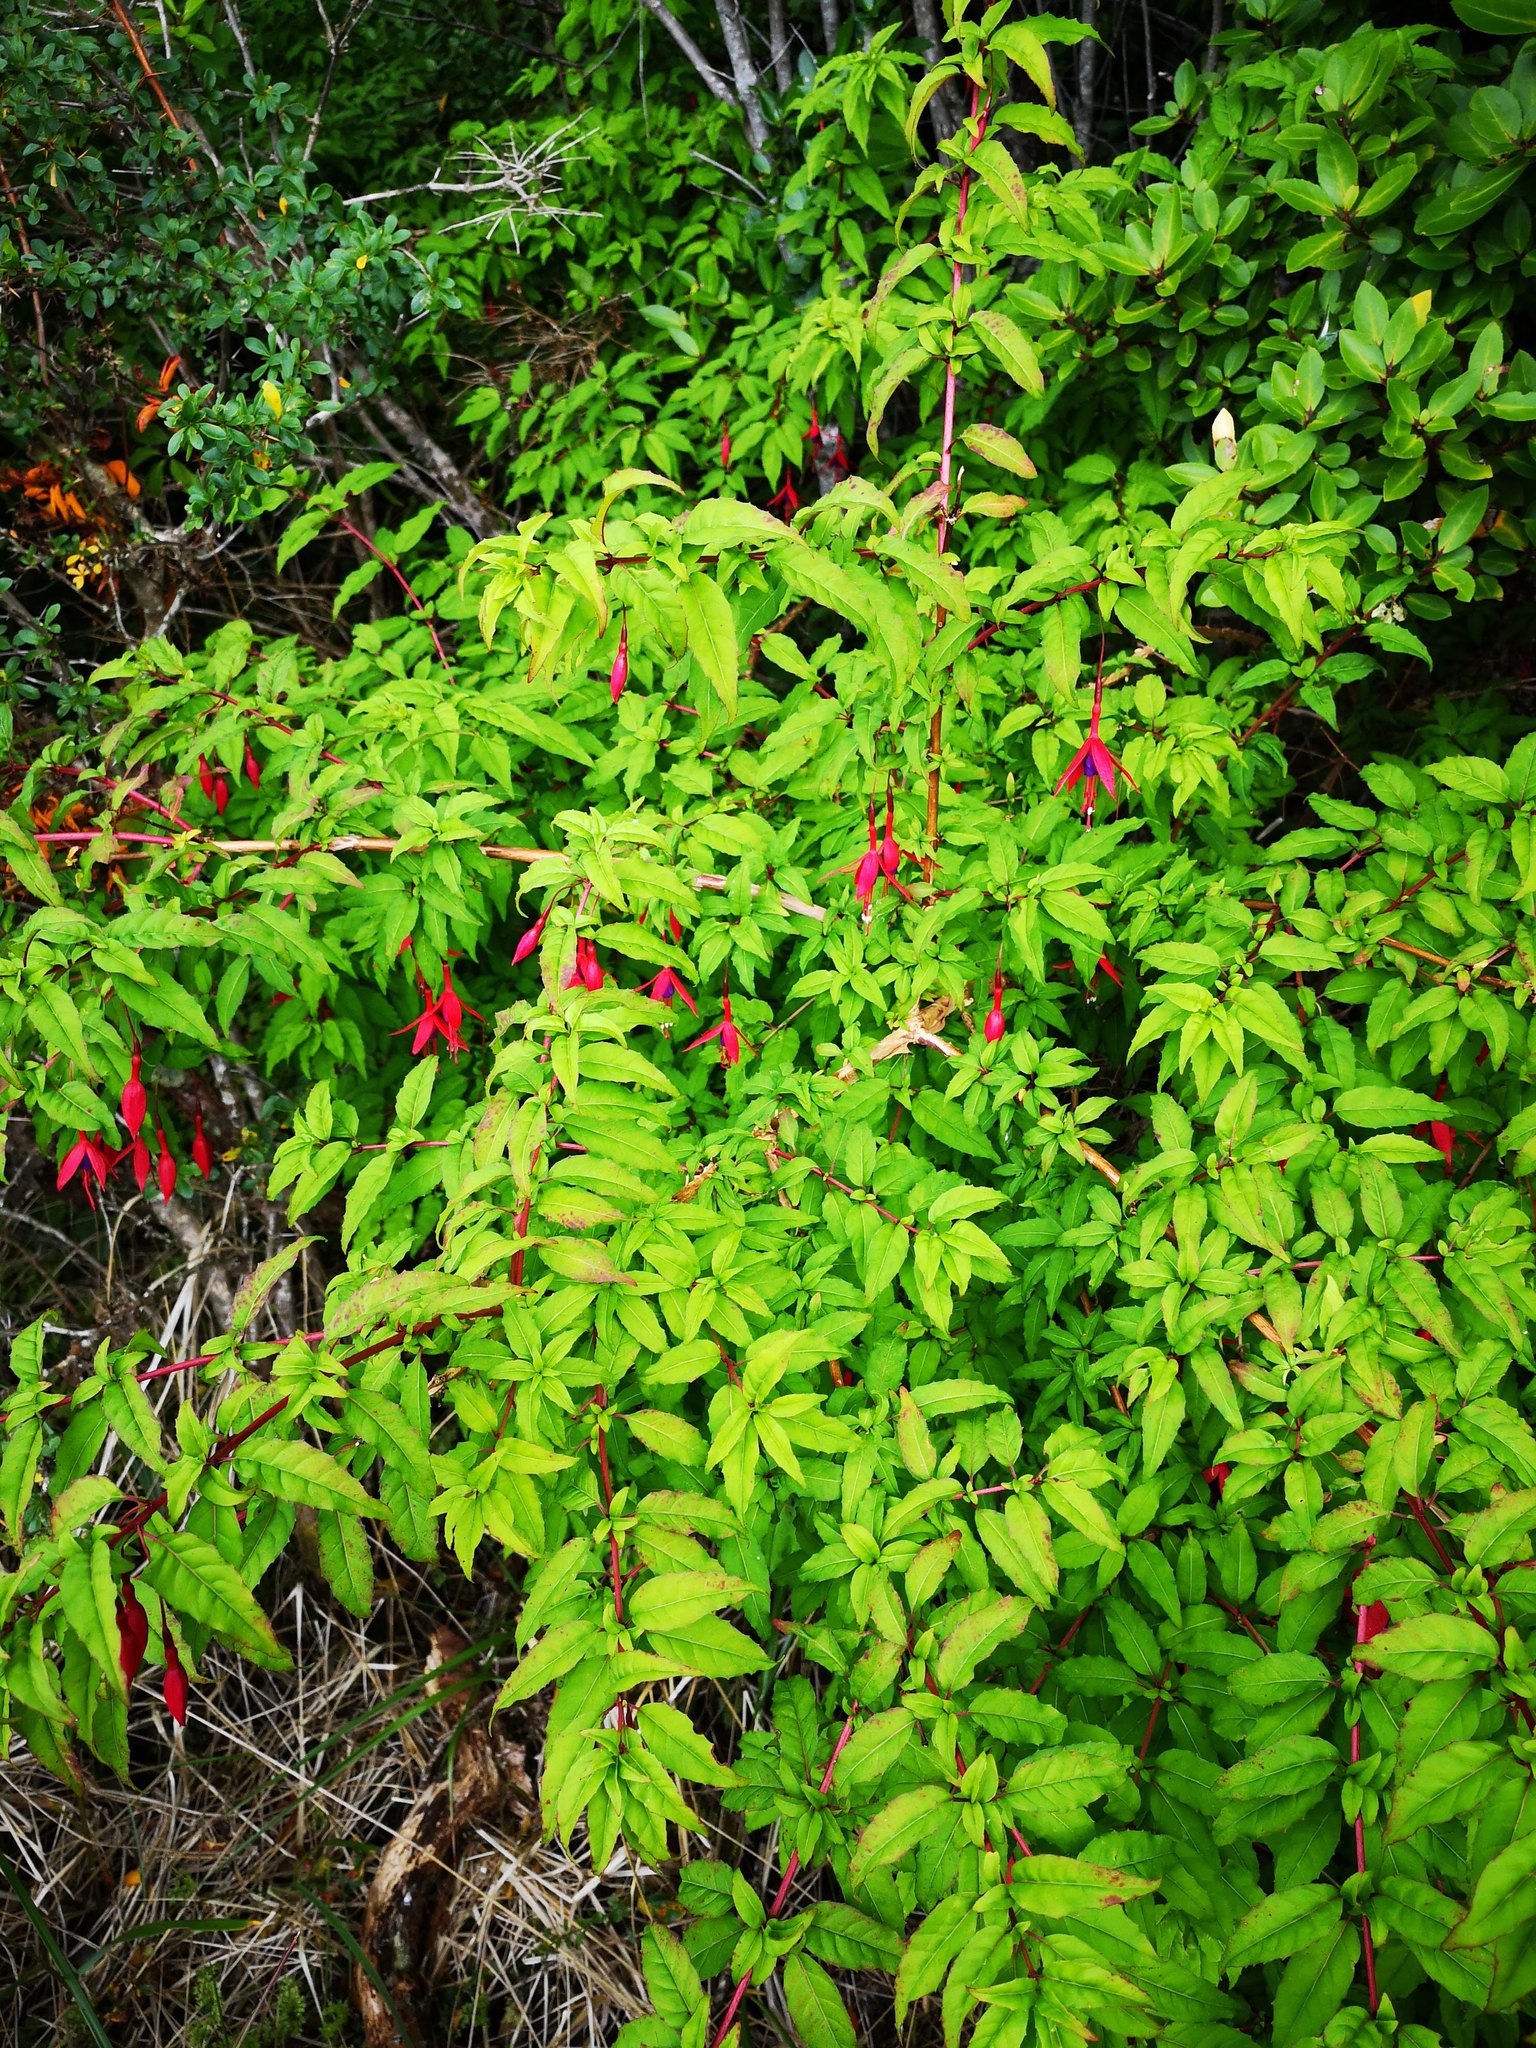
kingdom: Plantae
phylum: Tracheophyta
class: Magnoliopsida
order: Myrtales
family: Onagraceae
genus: Fuchsia
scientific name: Fuchsia magellanica
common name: Hardy fuchsia
